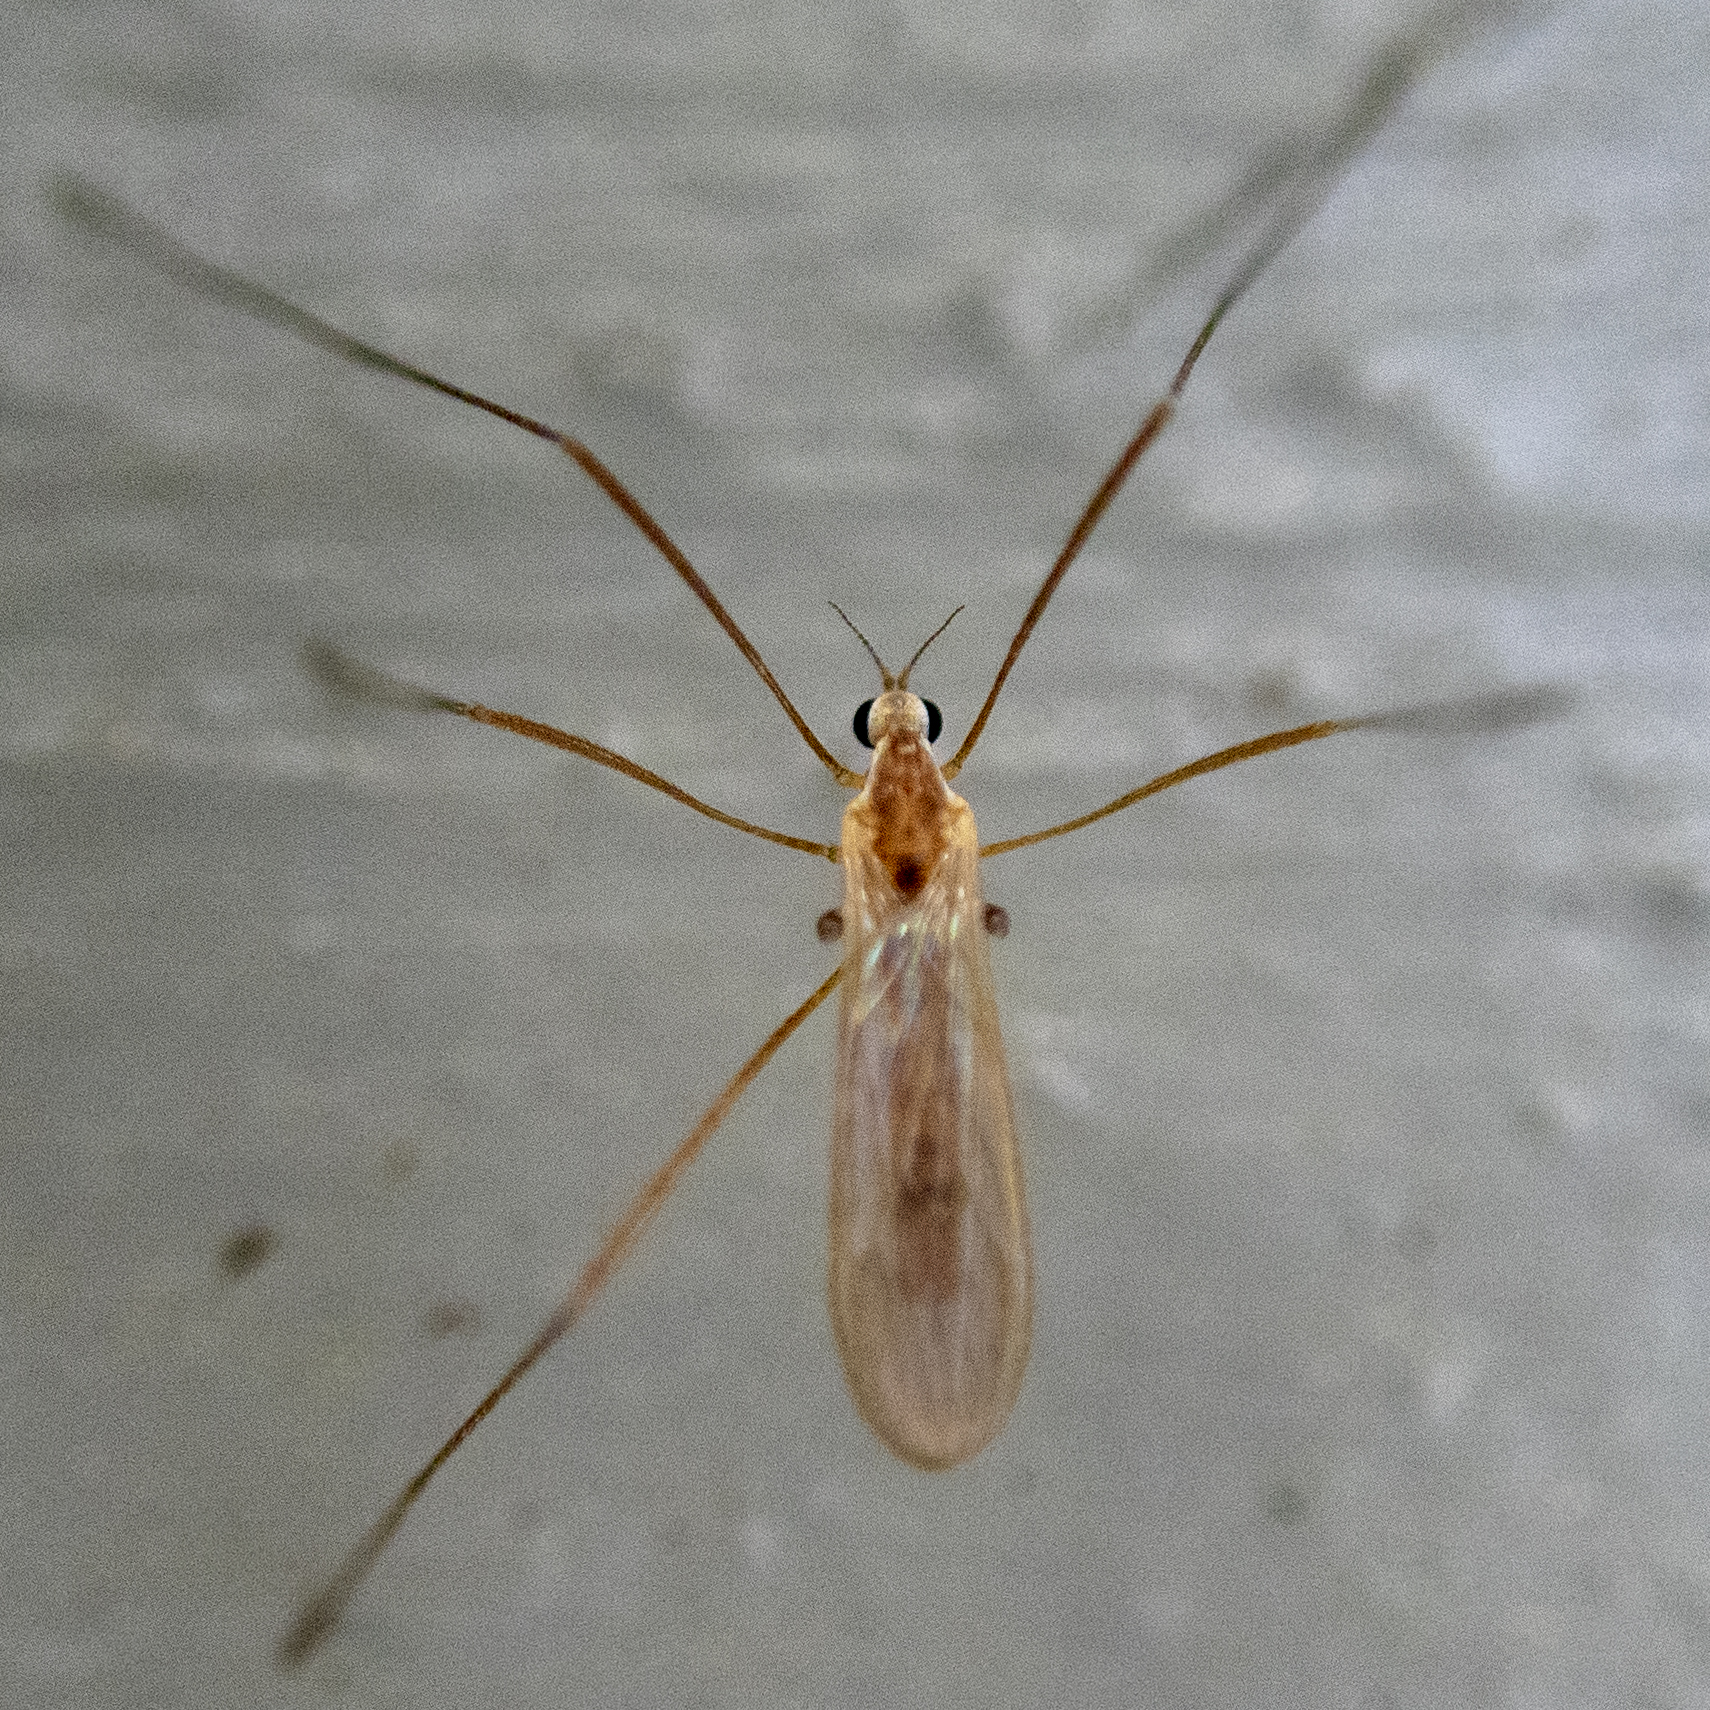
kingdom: Animalia
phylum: Arthropoda
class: Insecta
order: Diptera
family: Limoniidae
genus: Erioptera
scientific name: Erioptera septemtrionis
